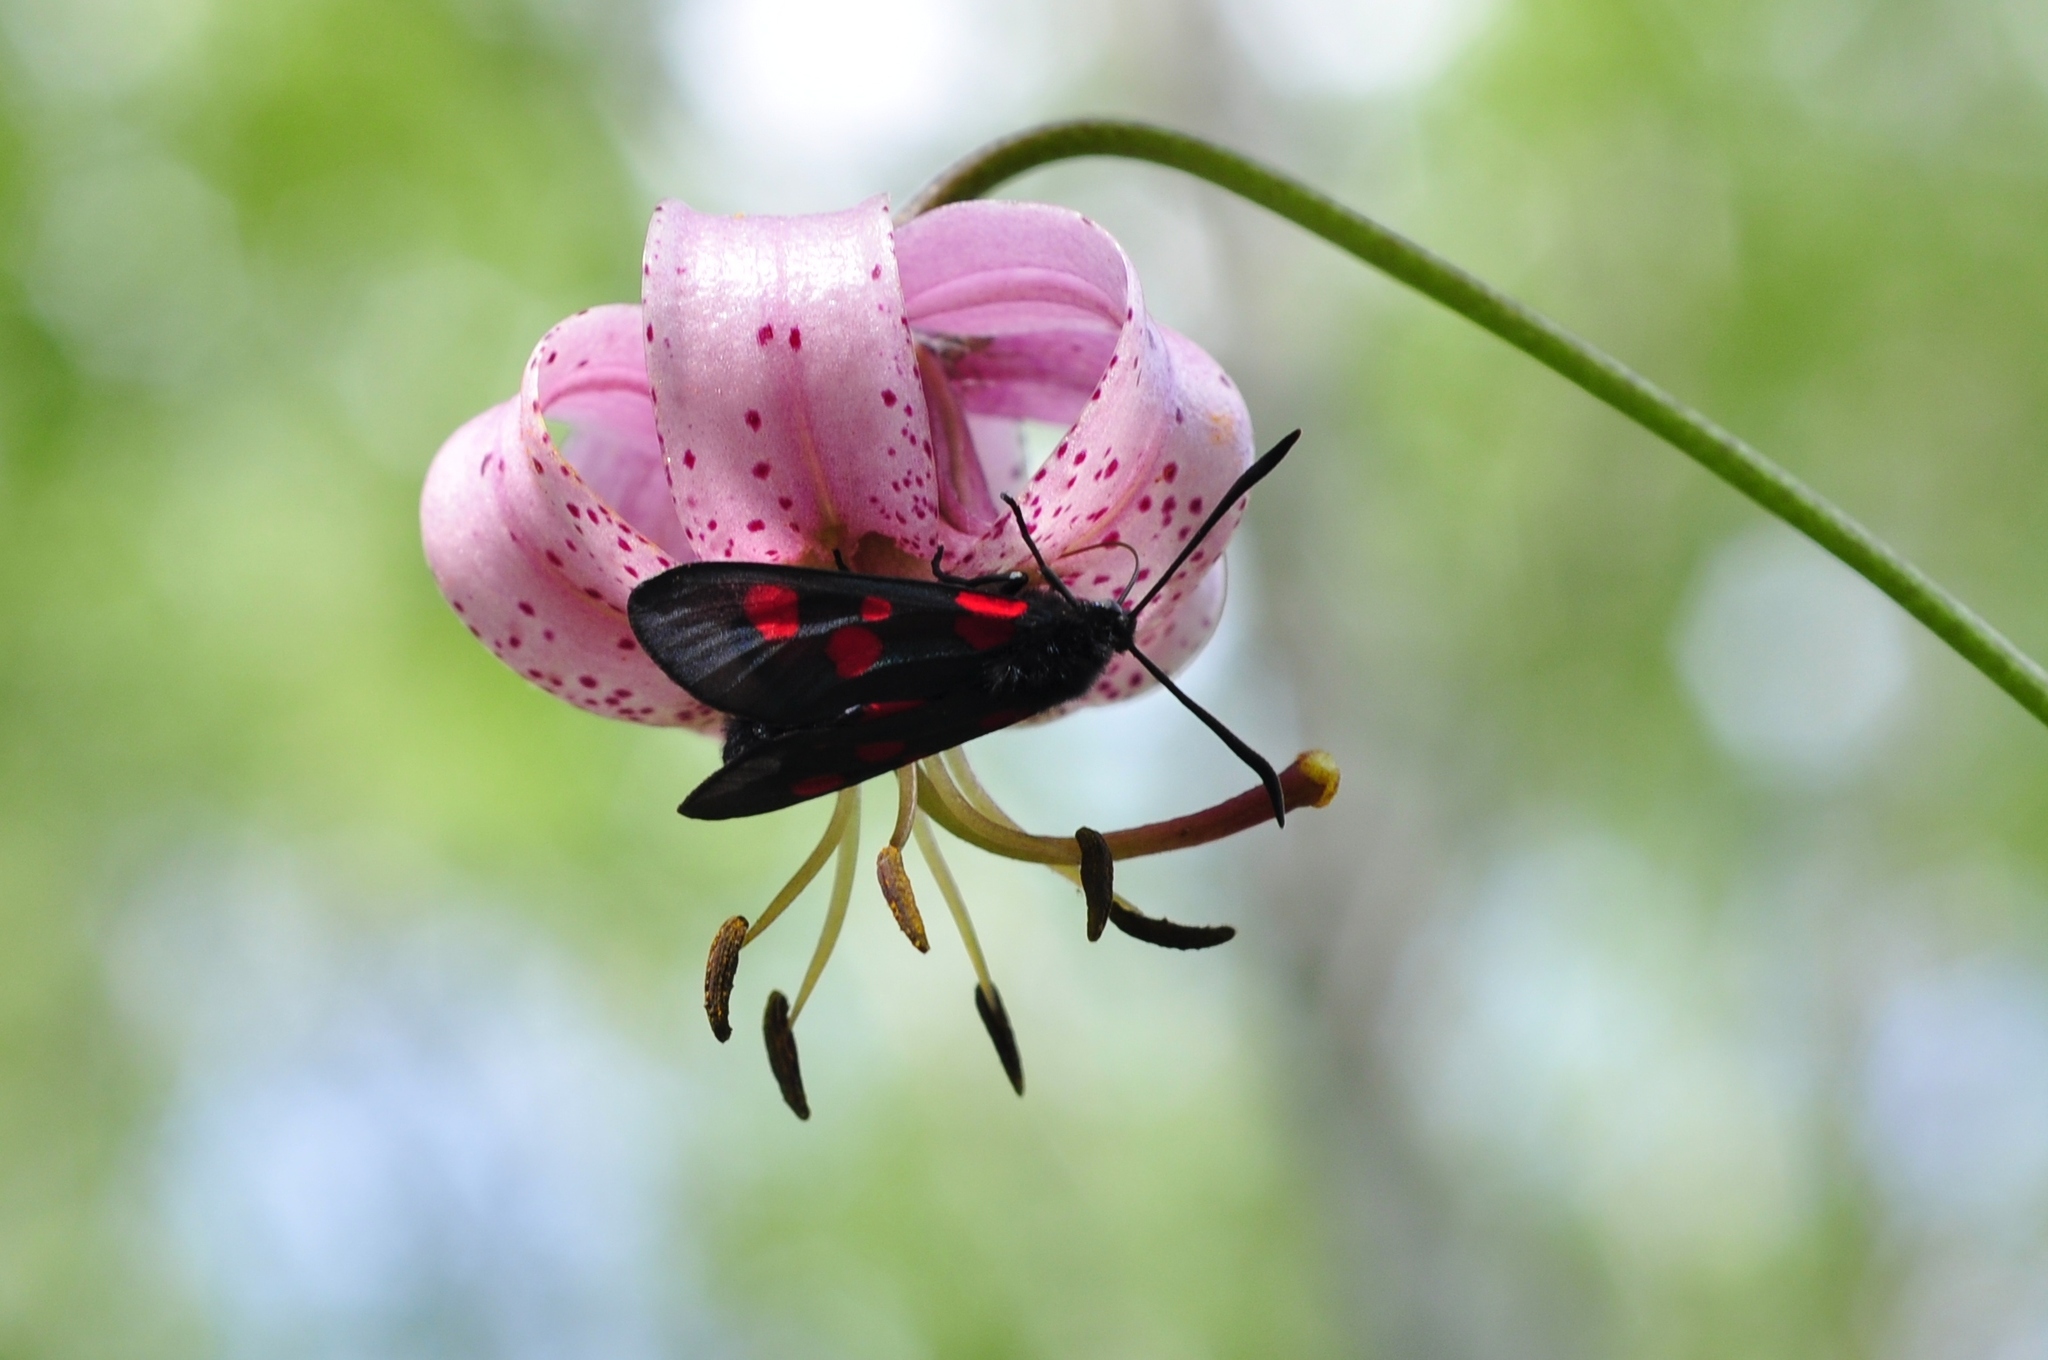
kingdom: Animalia
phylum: Arthropoda
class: Insecta
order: Lepidoptera
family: Zygaenidae
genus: Zygaena
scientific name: Zygaena lonicerae
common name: Narrow-bordered five-spot burnet
